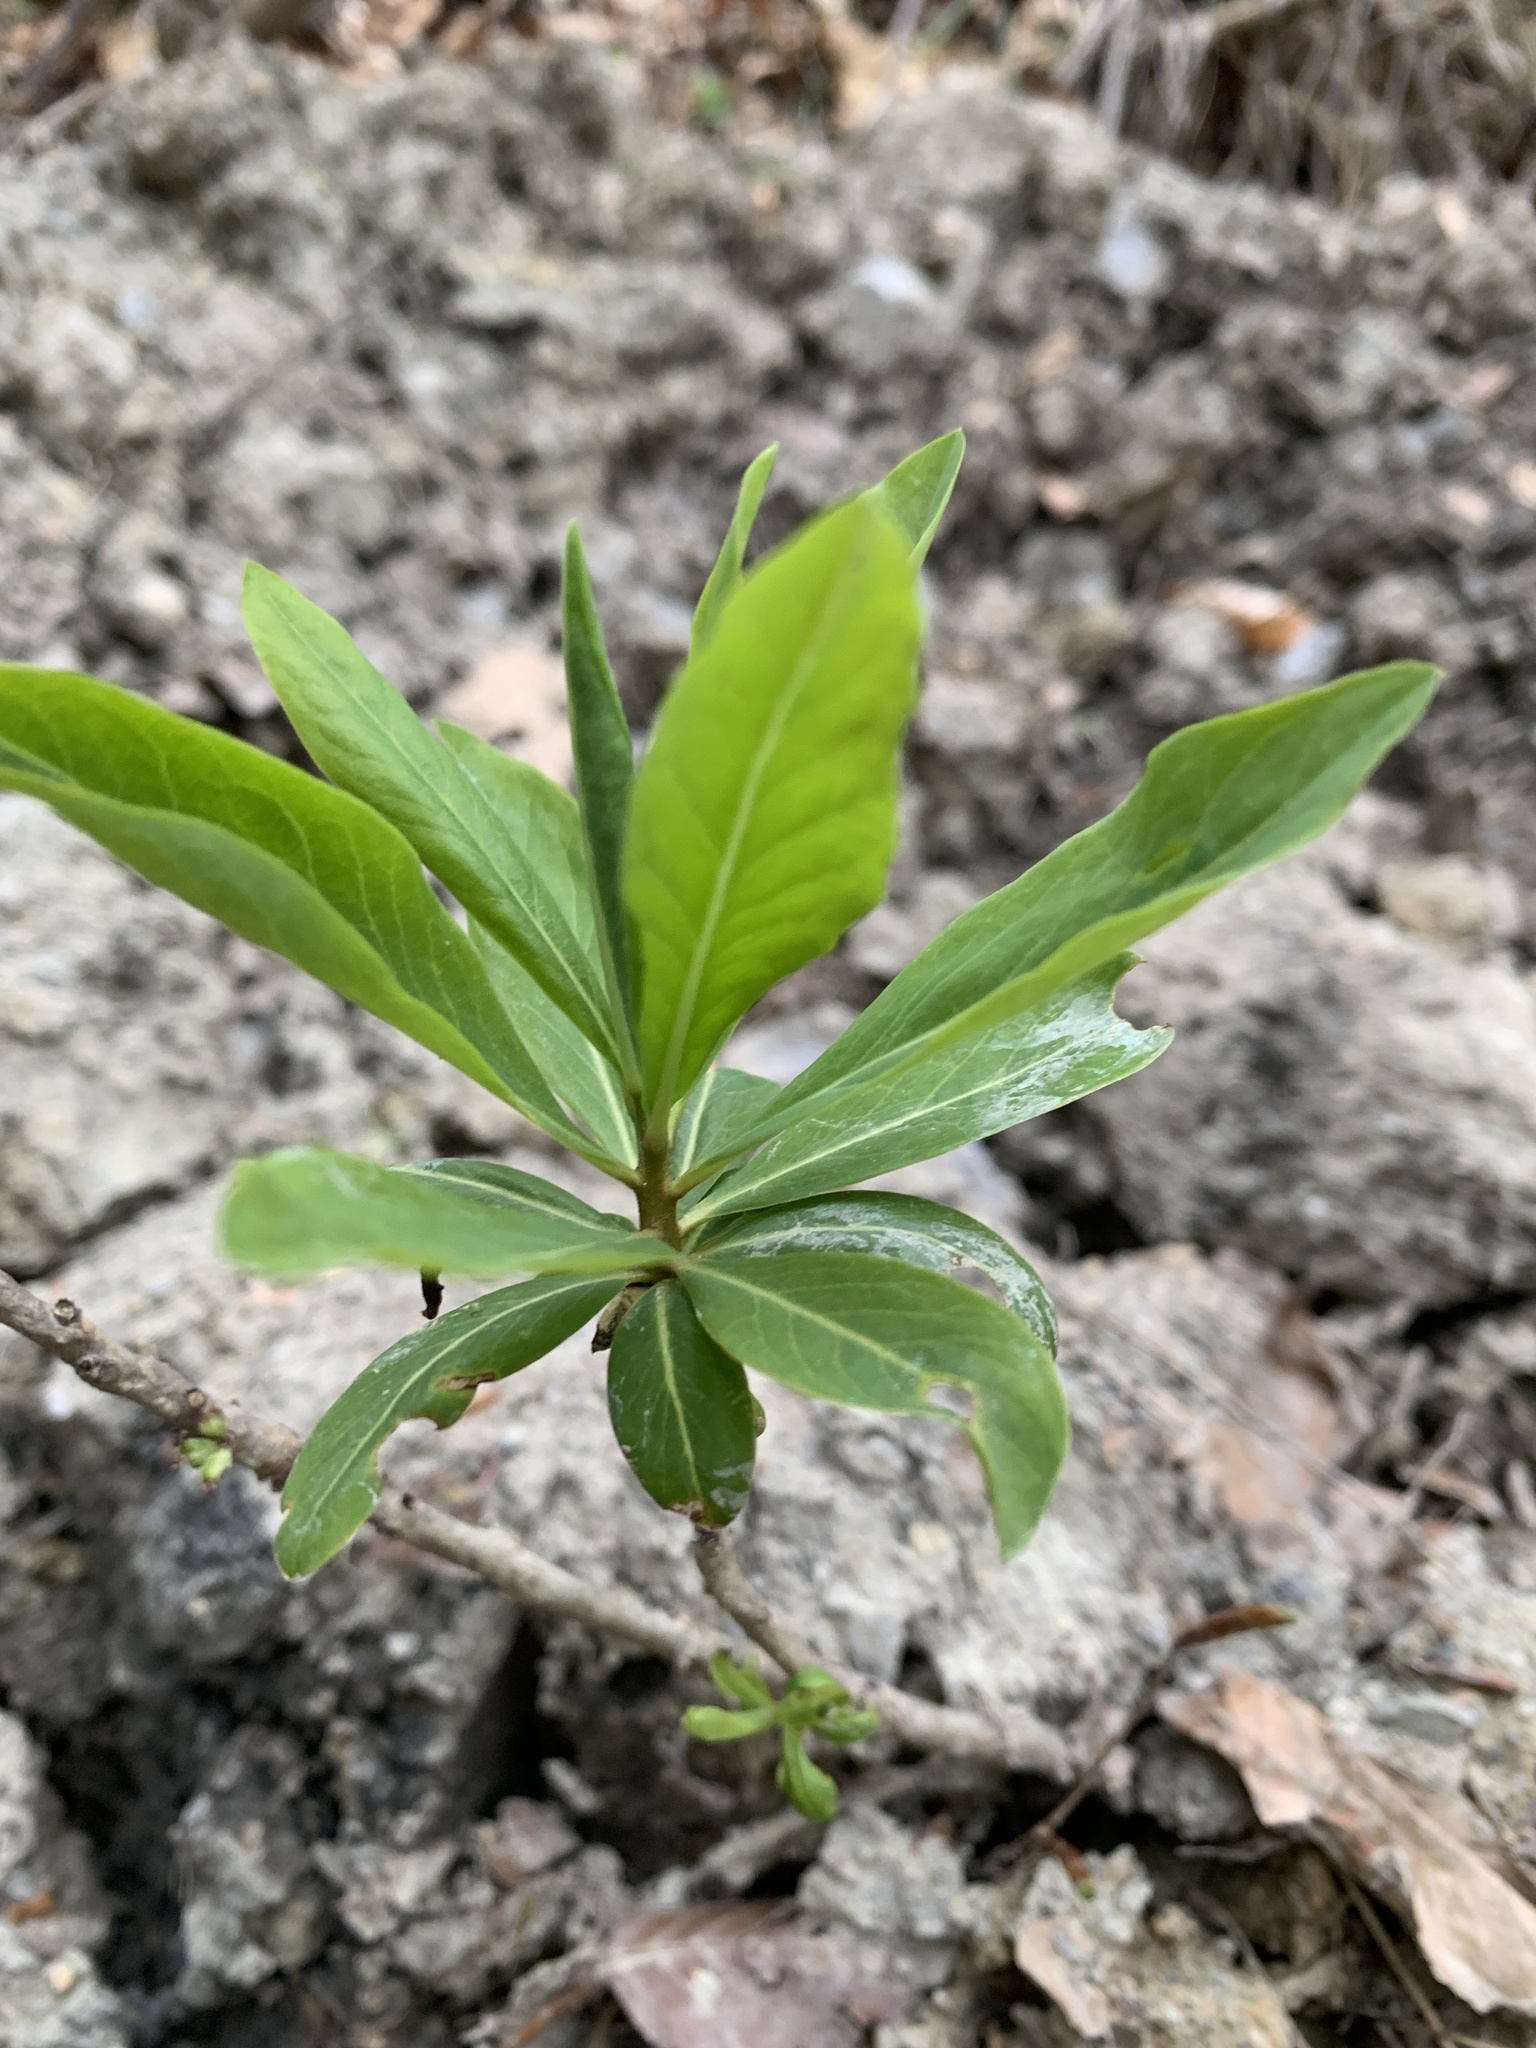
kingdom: Plantae
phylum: Tracheophyta
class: Magnoliopsida
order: Malvales
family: Thymelaeaceae
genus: Daphne
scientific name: Daphne mezereum
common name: Mezereon
